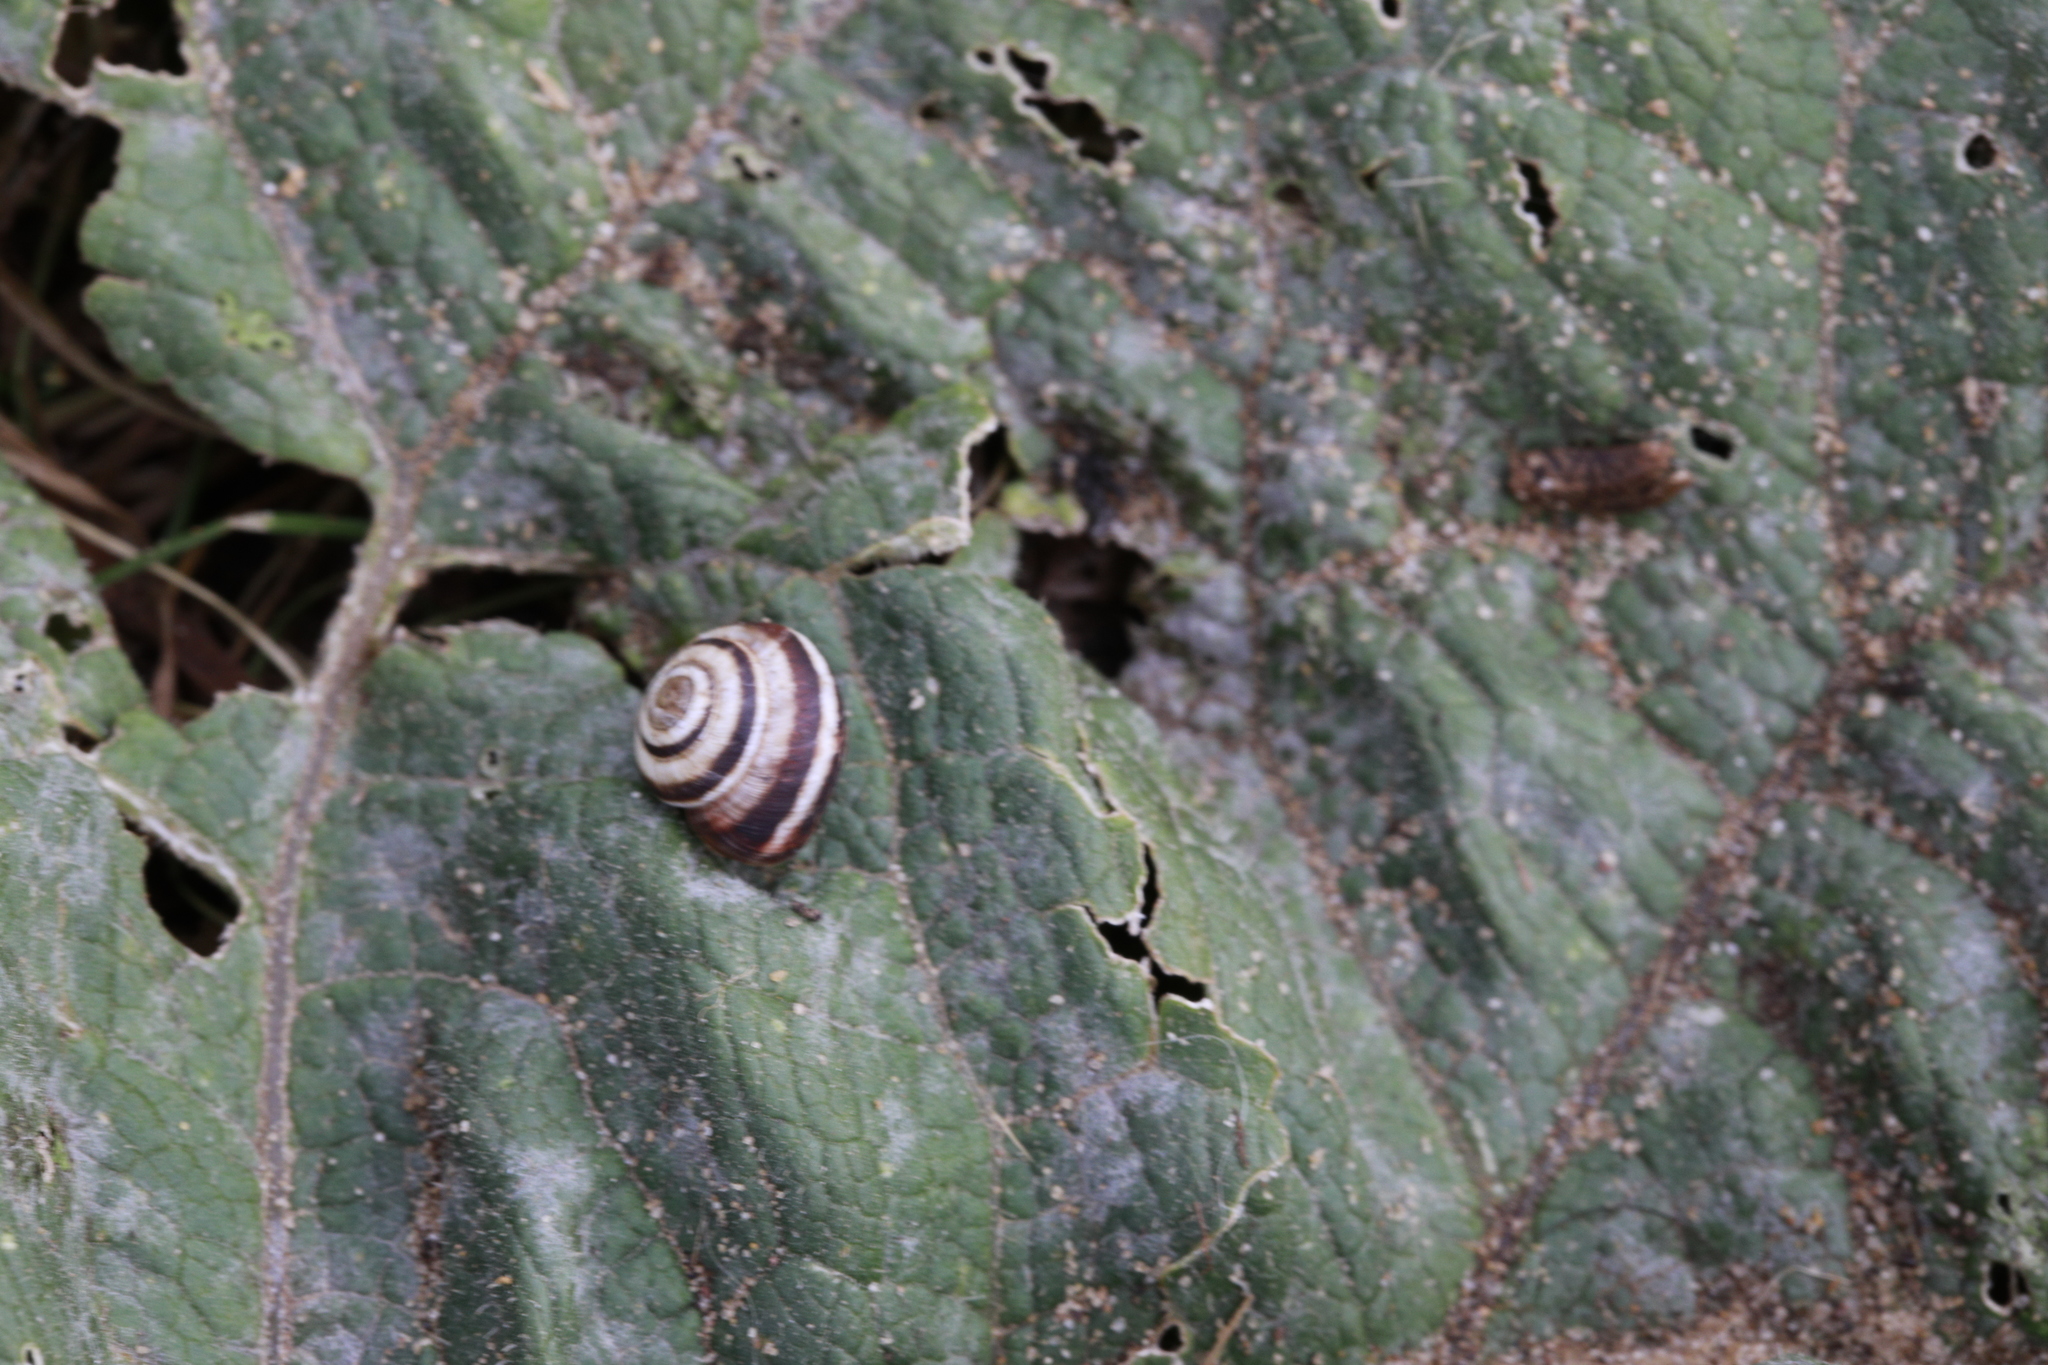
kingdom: Animalia
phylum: Mollusca
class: Gastropoda
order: Stylommatophora
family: Geomitridae
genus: Cernuella
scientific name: Cernuella virgata
